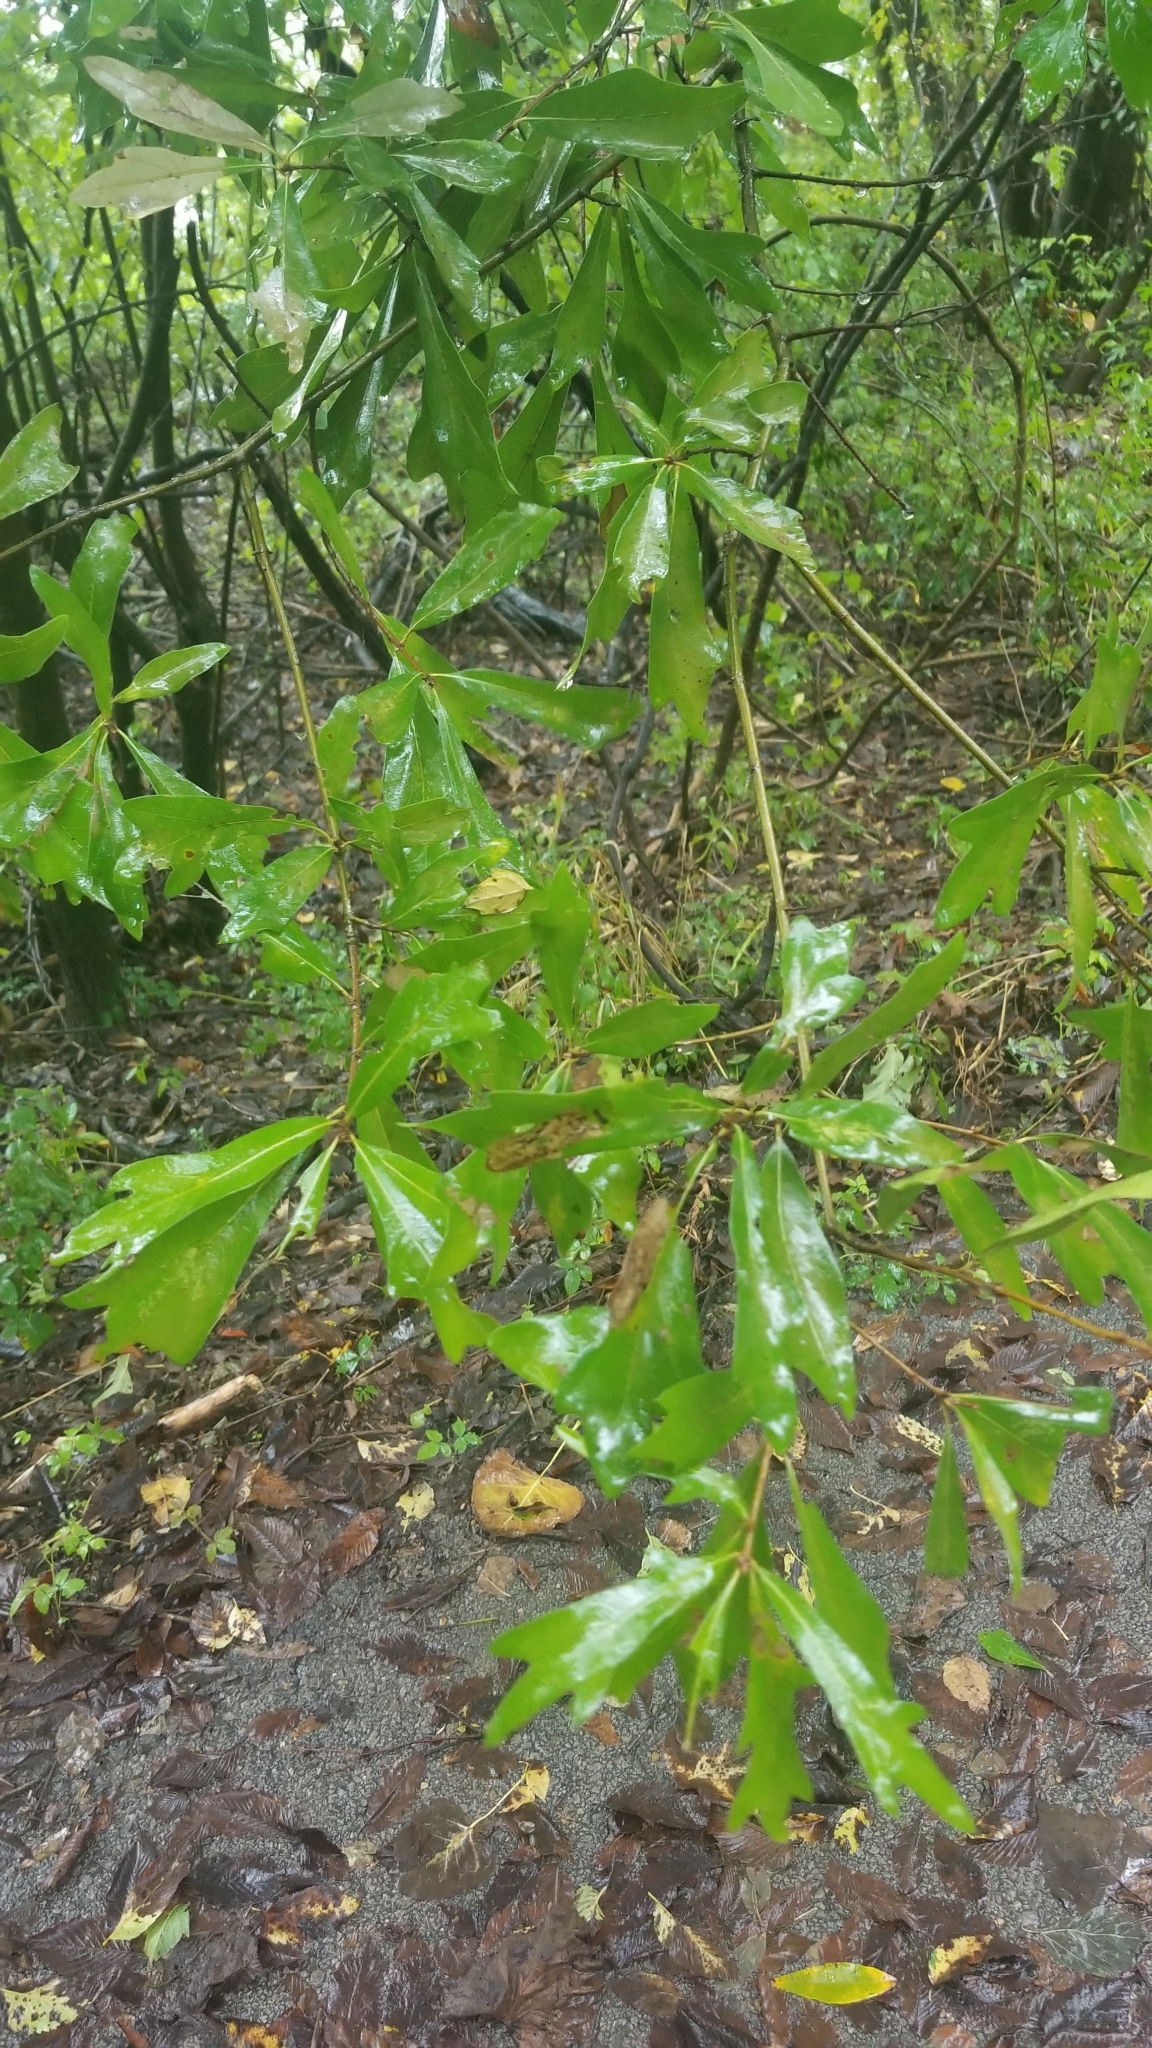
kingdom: Plantae
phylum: Tracheophyta
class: Magnoliopsida
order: Fagales
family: Fagaceae
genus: Quercus
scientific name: Quercus nigra
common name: Water oak
